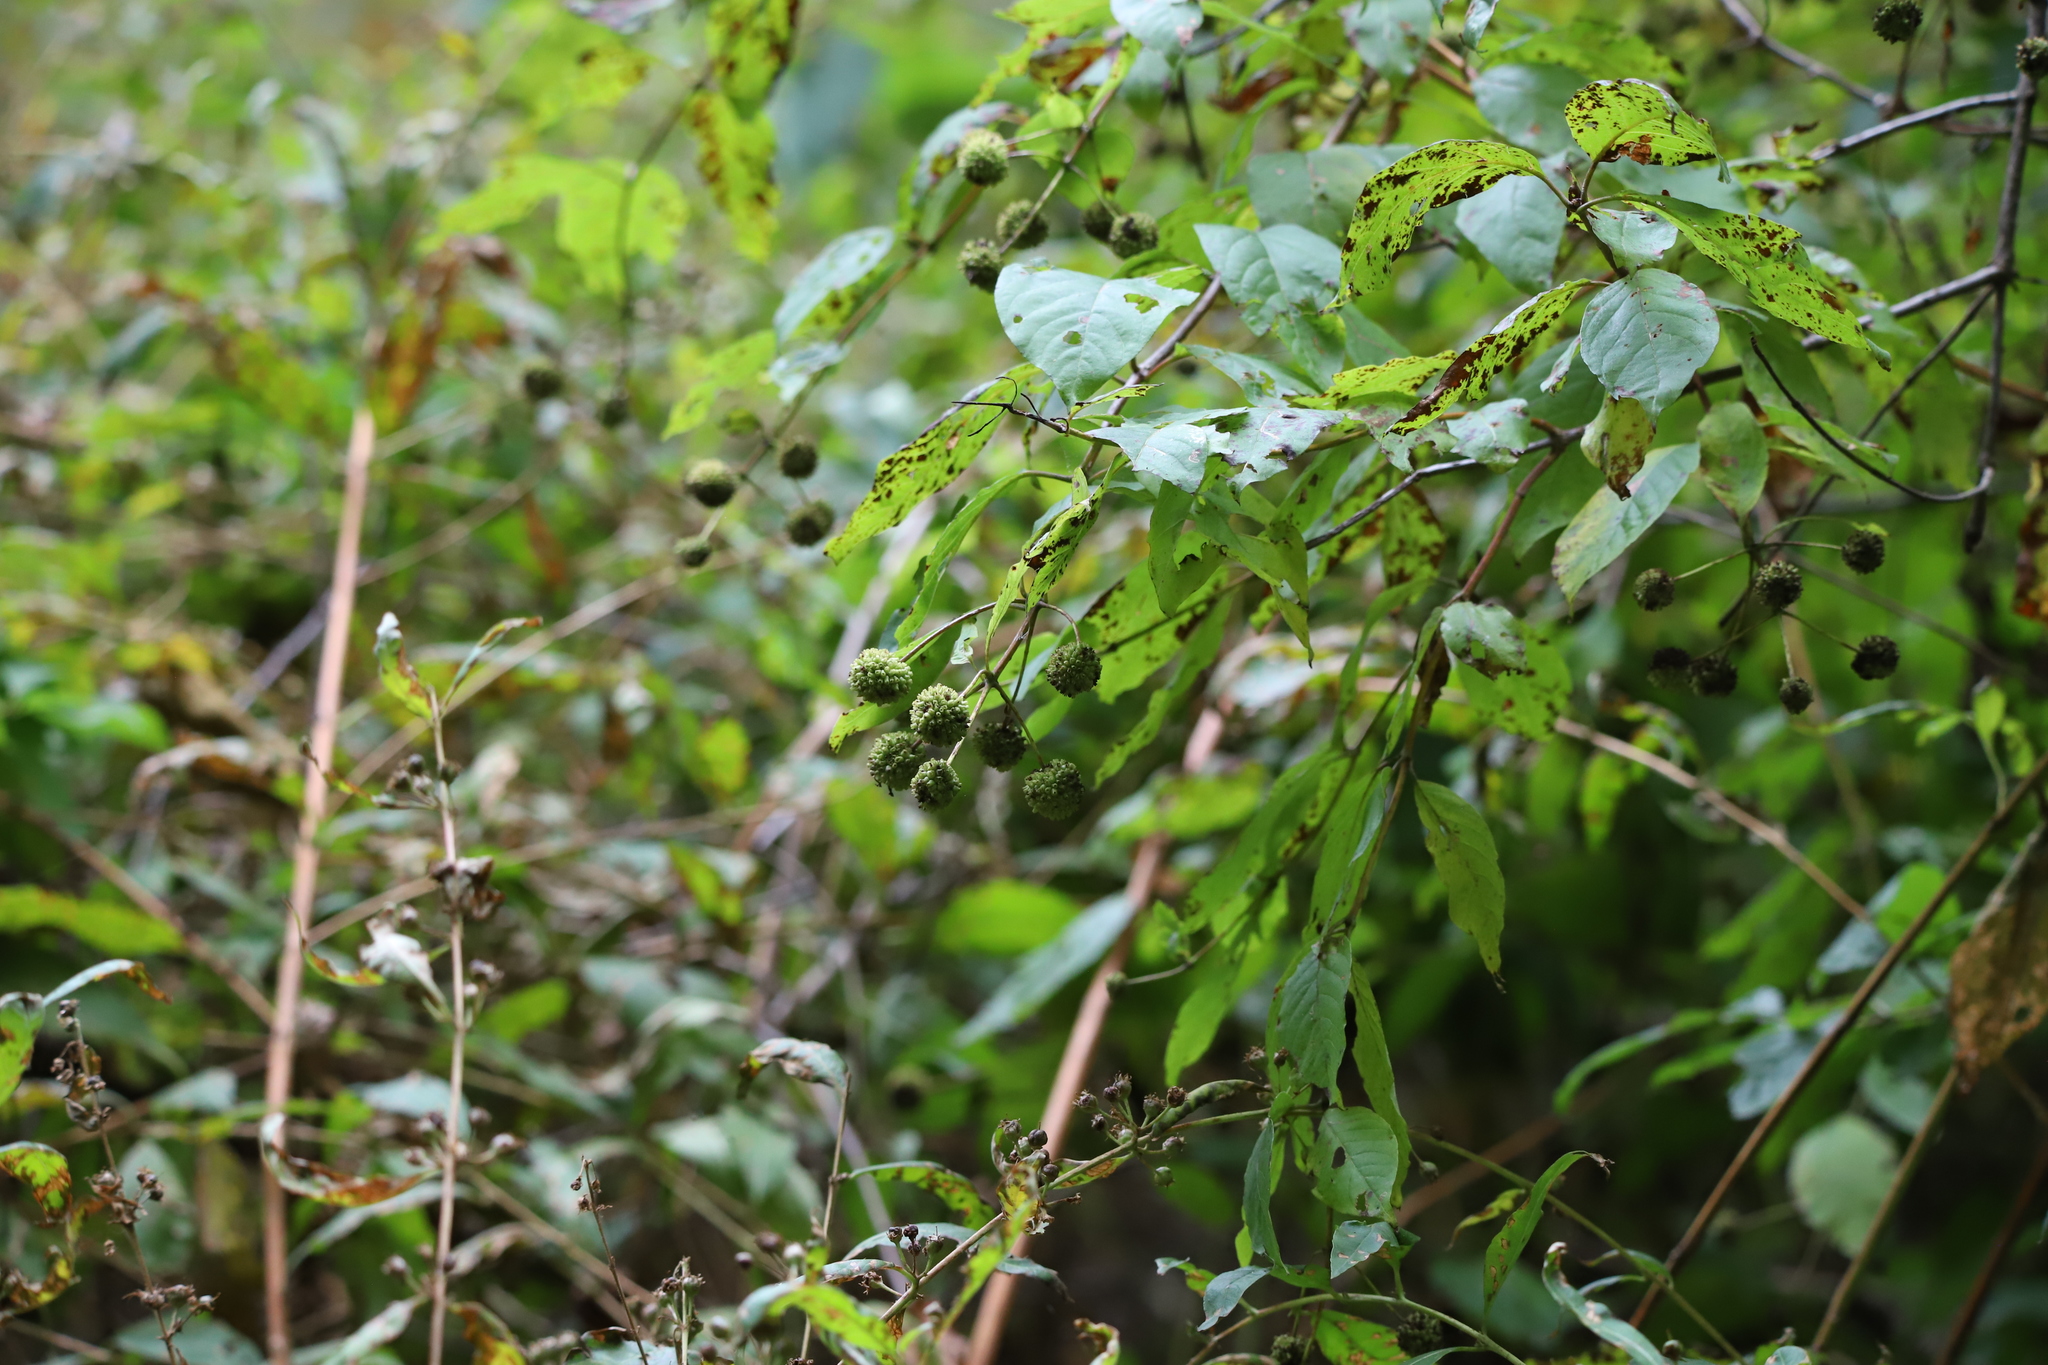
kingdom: Plantae
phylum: Tracheophyta
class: Magnoliopsida
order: Gentianales
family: Rubiaceae
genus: Cephalanthus
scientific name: Cephalanthus occidentalis
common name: Button-willow
